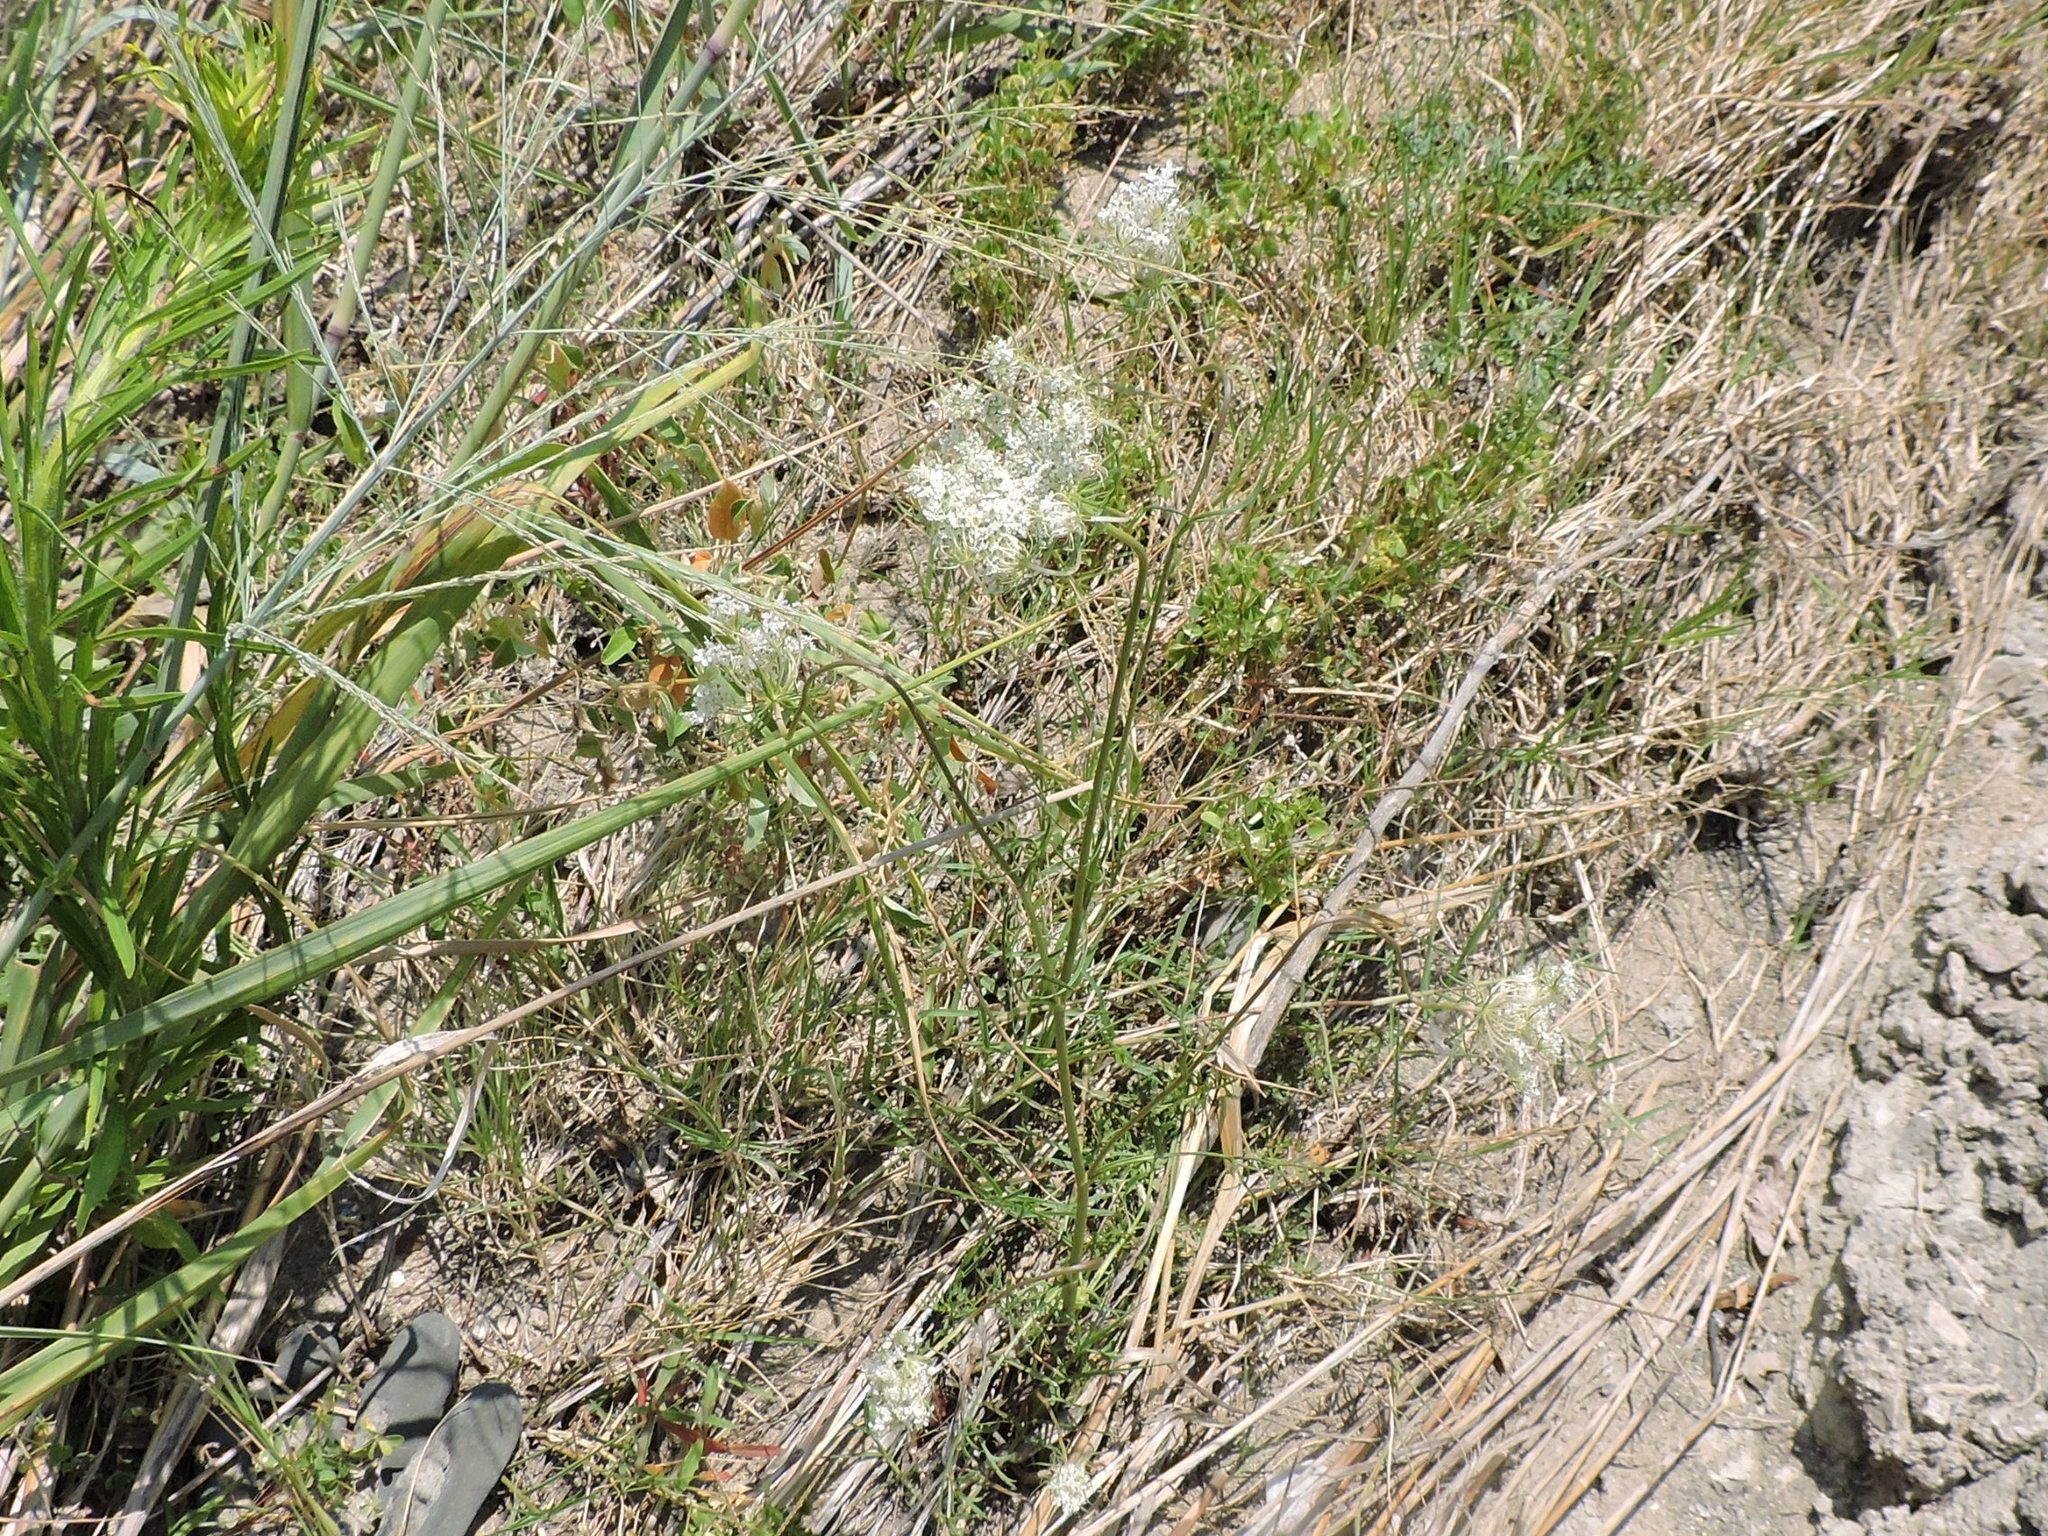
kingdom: Plantae
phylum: Tracheophyta
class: Magnoliopsida
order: Apiales
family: Apiaceae
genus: Daucus
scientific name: Daucus carota
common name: Wild carrot
